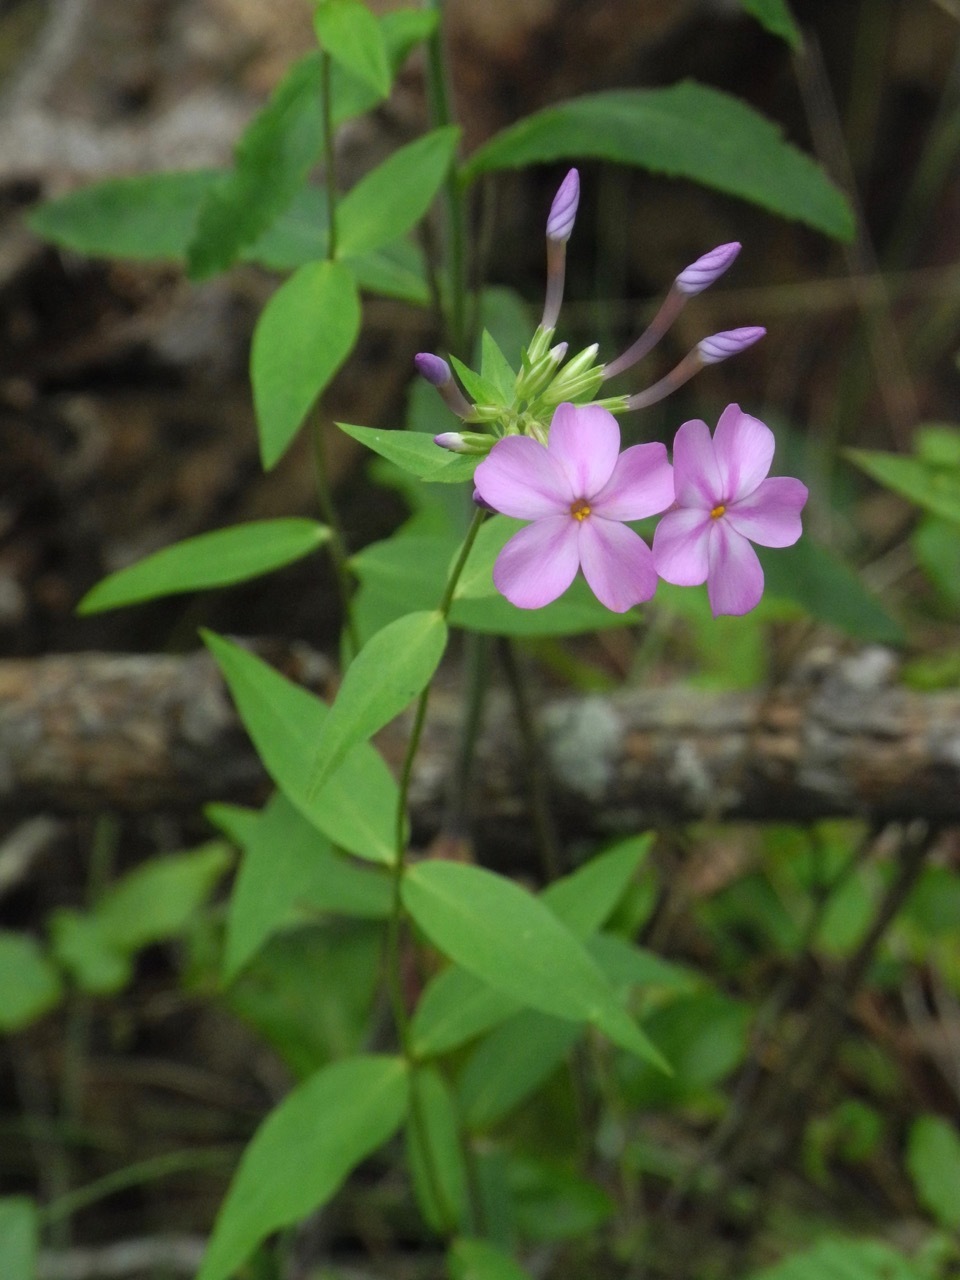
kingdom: Plantae
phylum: Tracheophyta
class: Magnoliopsida
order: Ericales
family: Polemoniaceae
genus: Phlox
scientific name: Phlox maculata
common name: Meadow phlox
